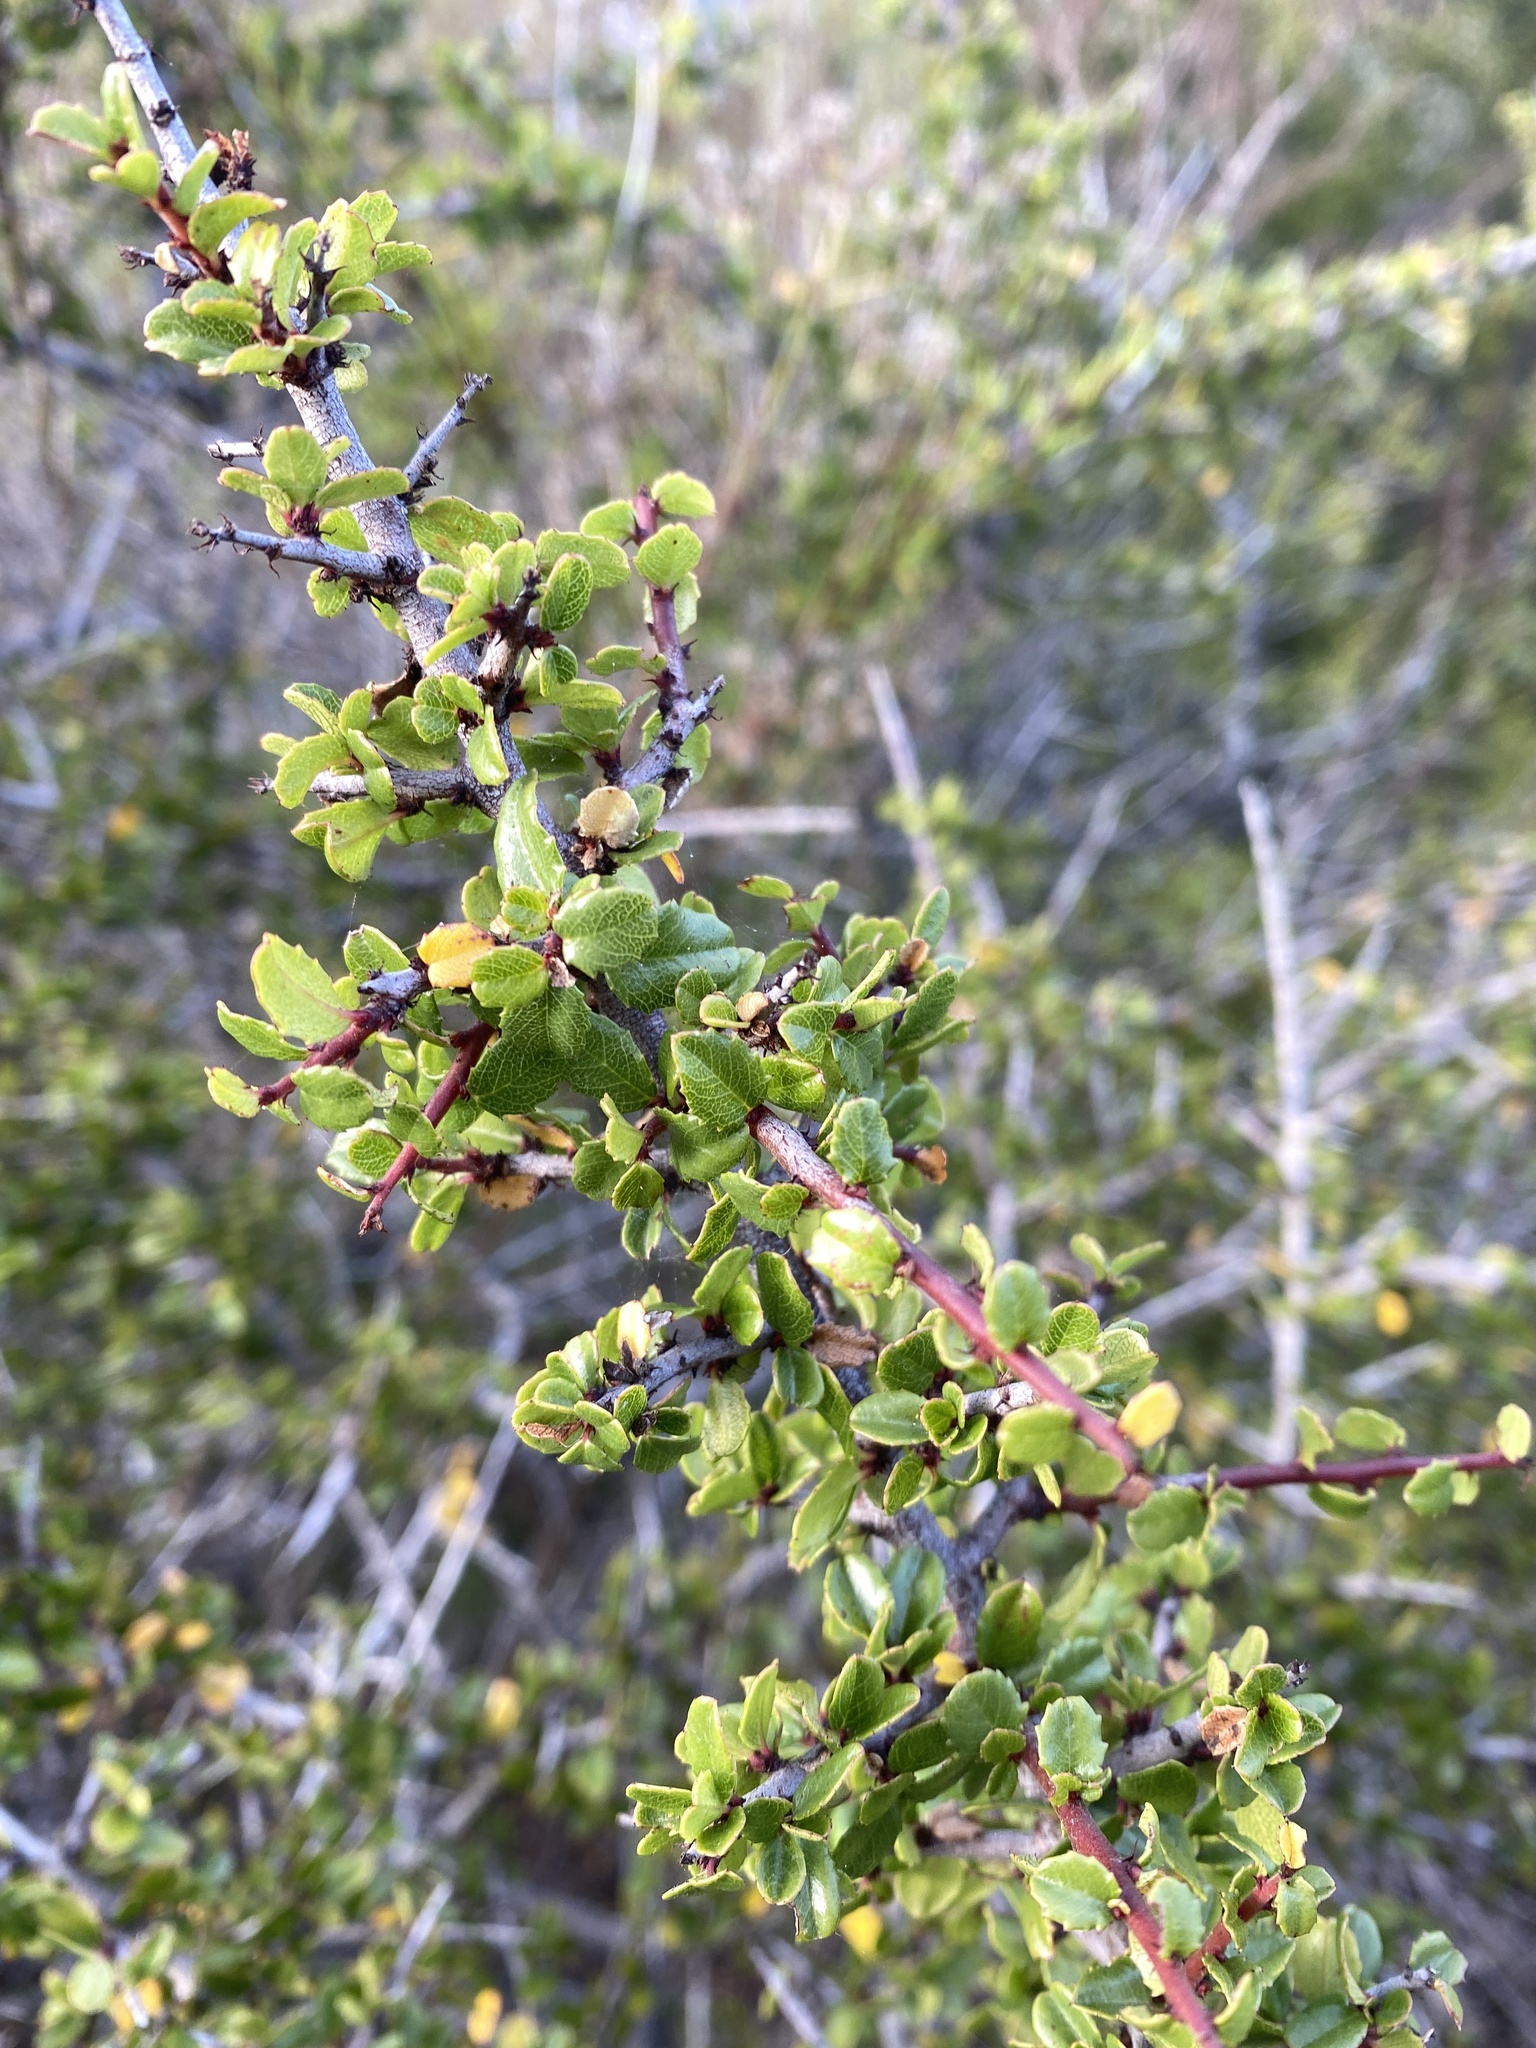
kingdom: Plantae
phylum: Tracheophyta
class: Magnoliopsida
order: Rosales
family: Rhamnaceae
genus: Endotropis
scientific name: Endotropis crocea
